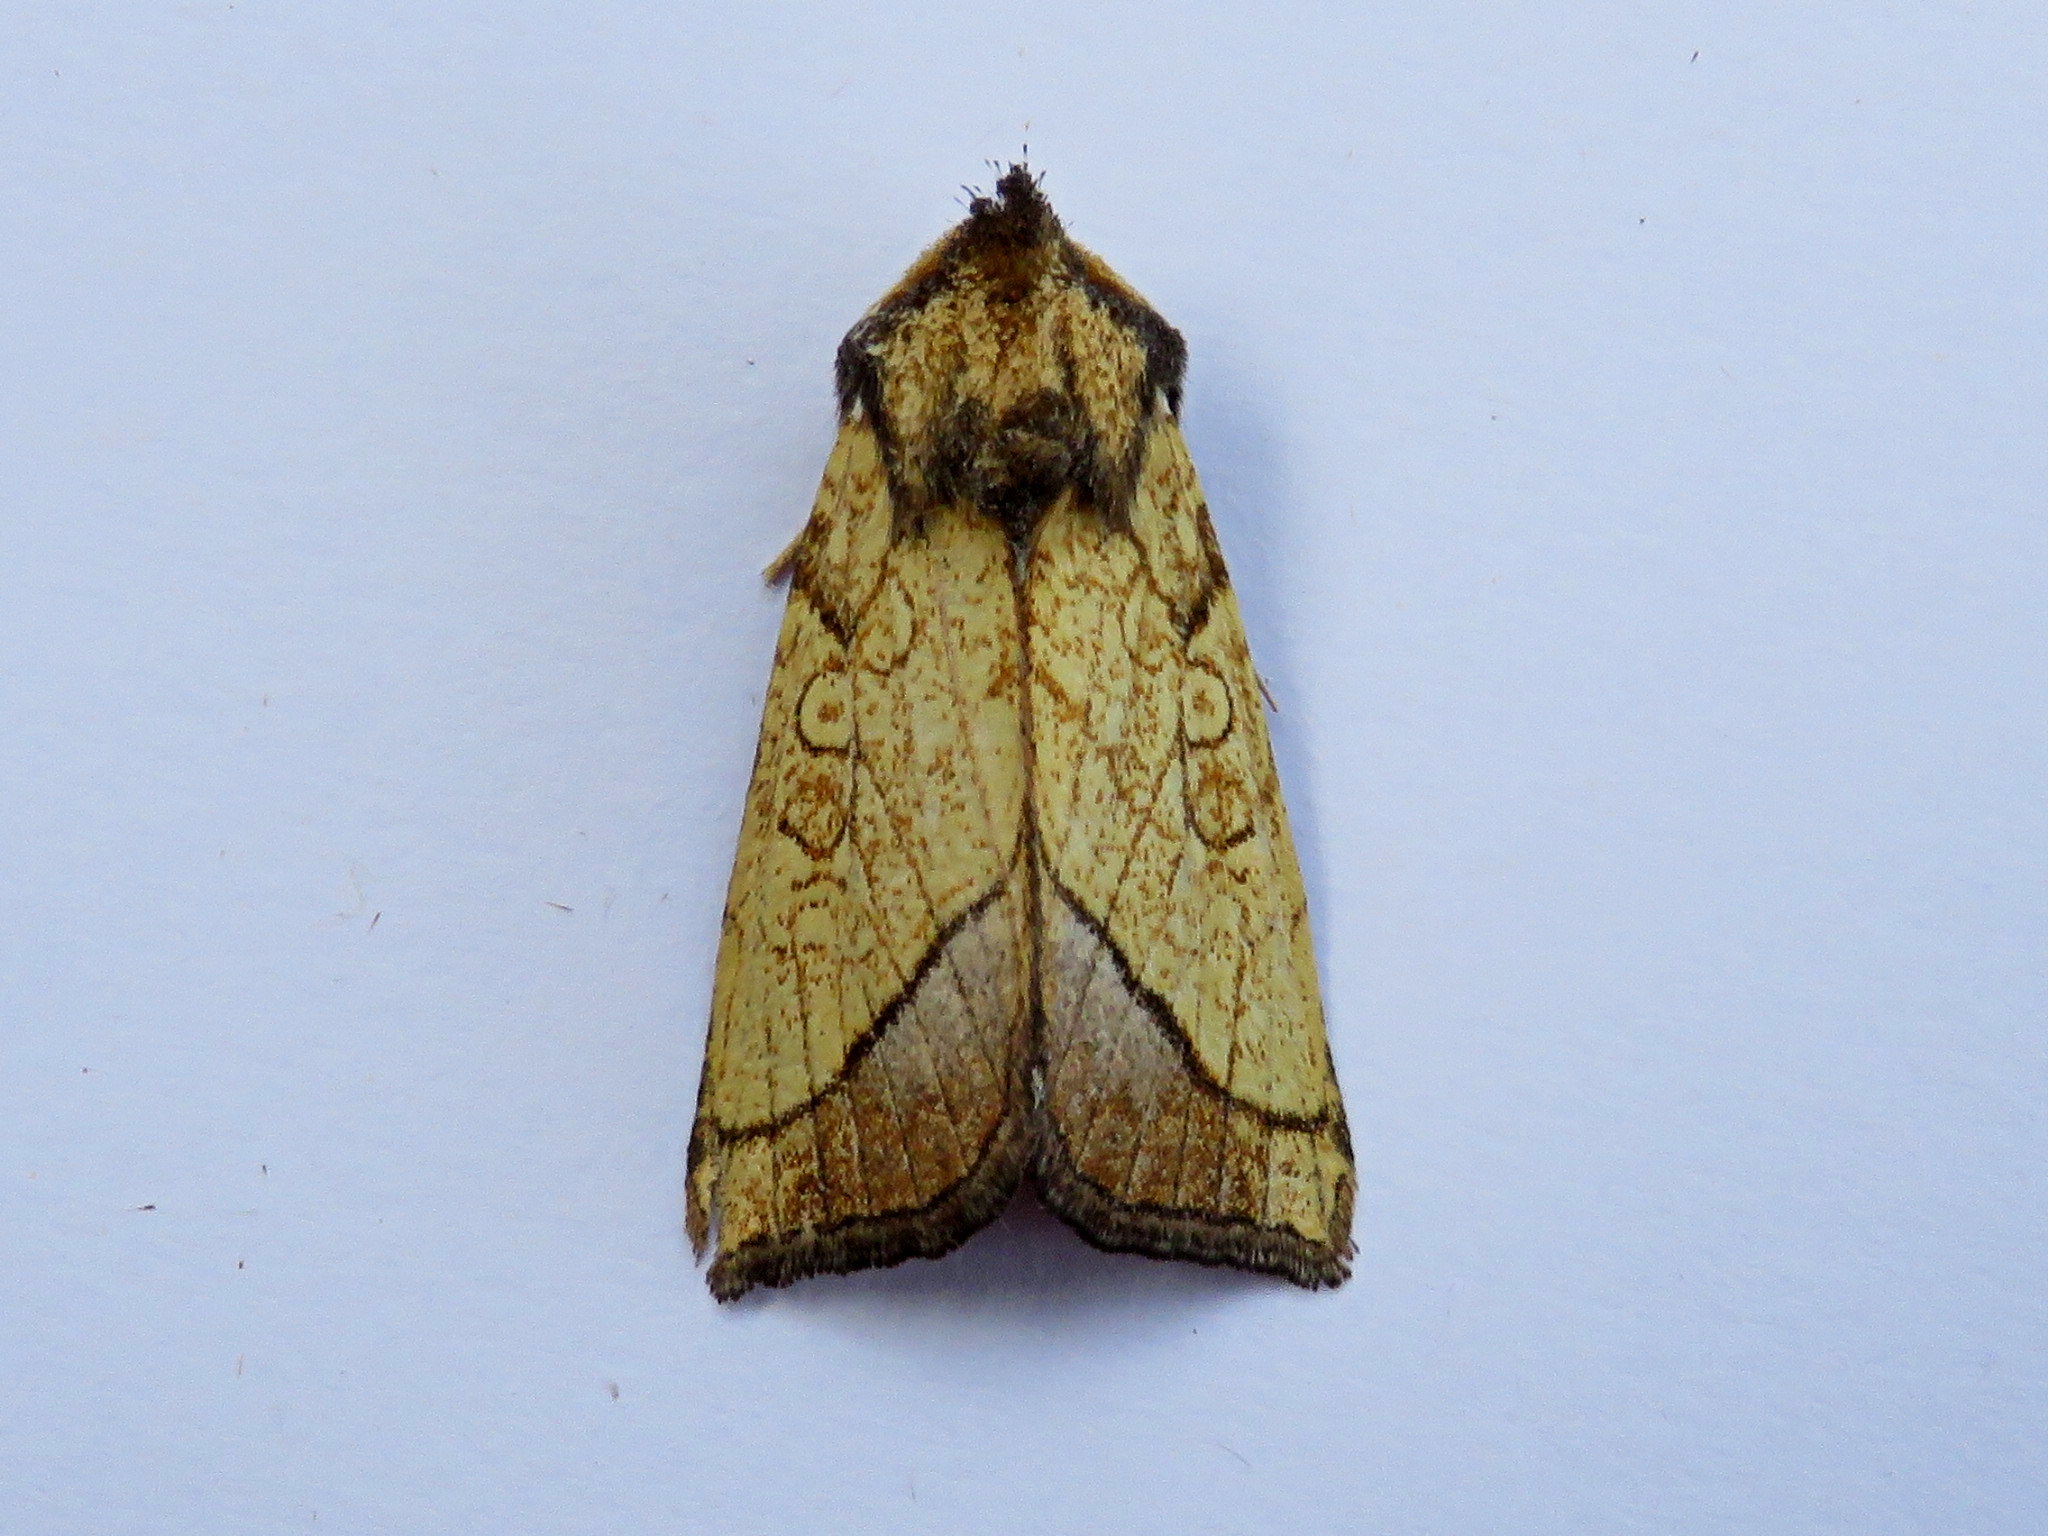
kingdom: Animalia
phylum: Arthropoda
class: Insecta
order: Lepidoptera
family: Noctuidae
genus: Papaipema
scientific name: Papaipema rigida
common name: Rigid sunflower borer moth
